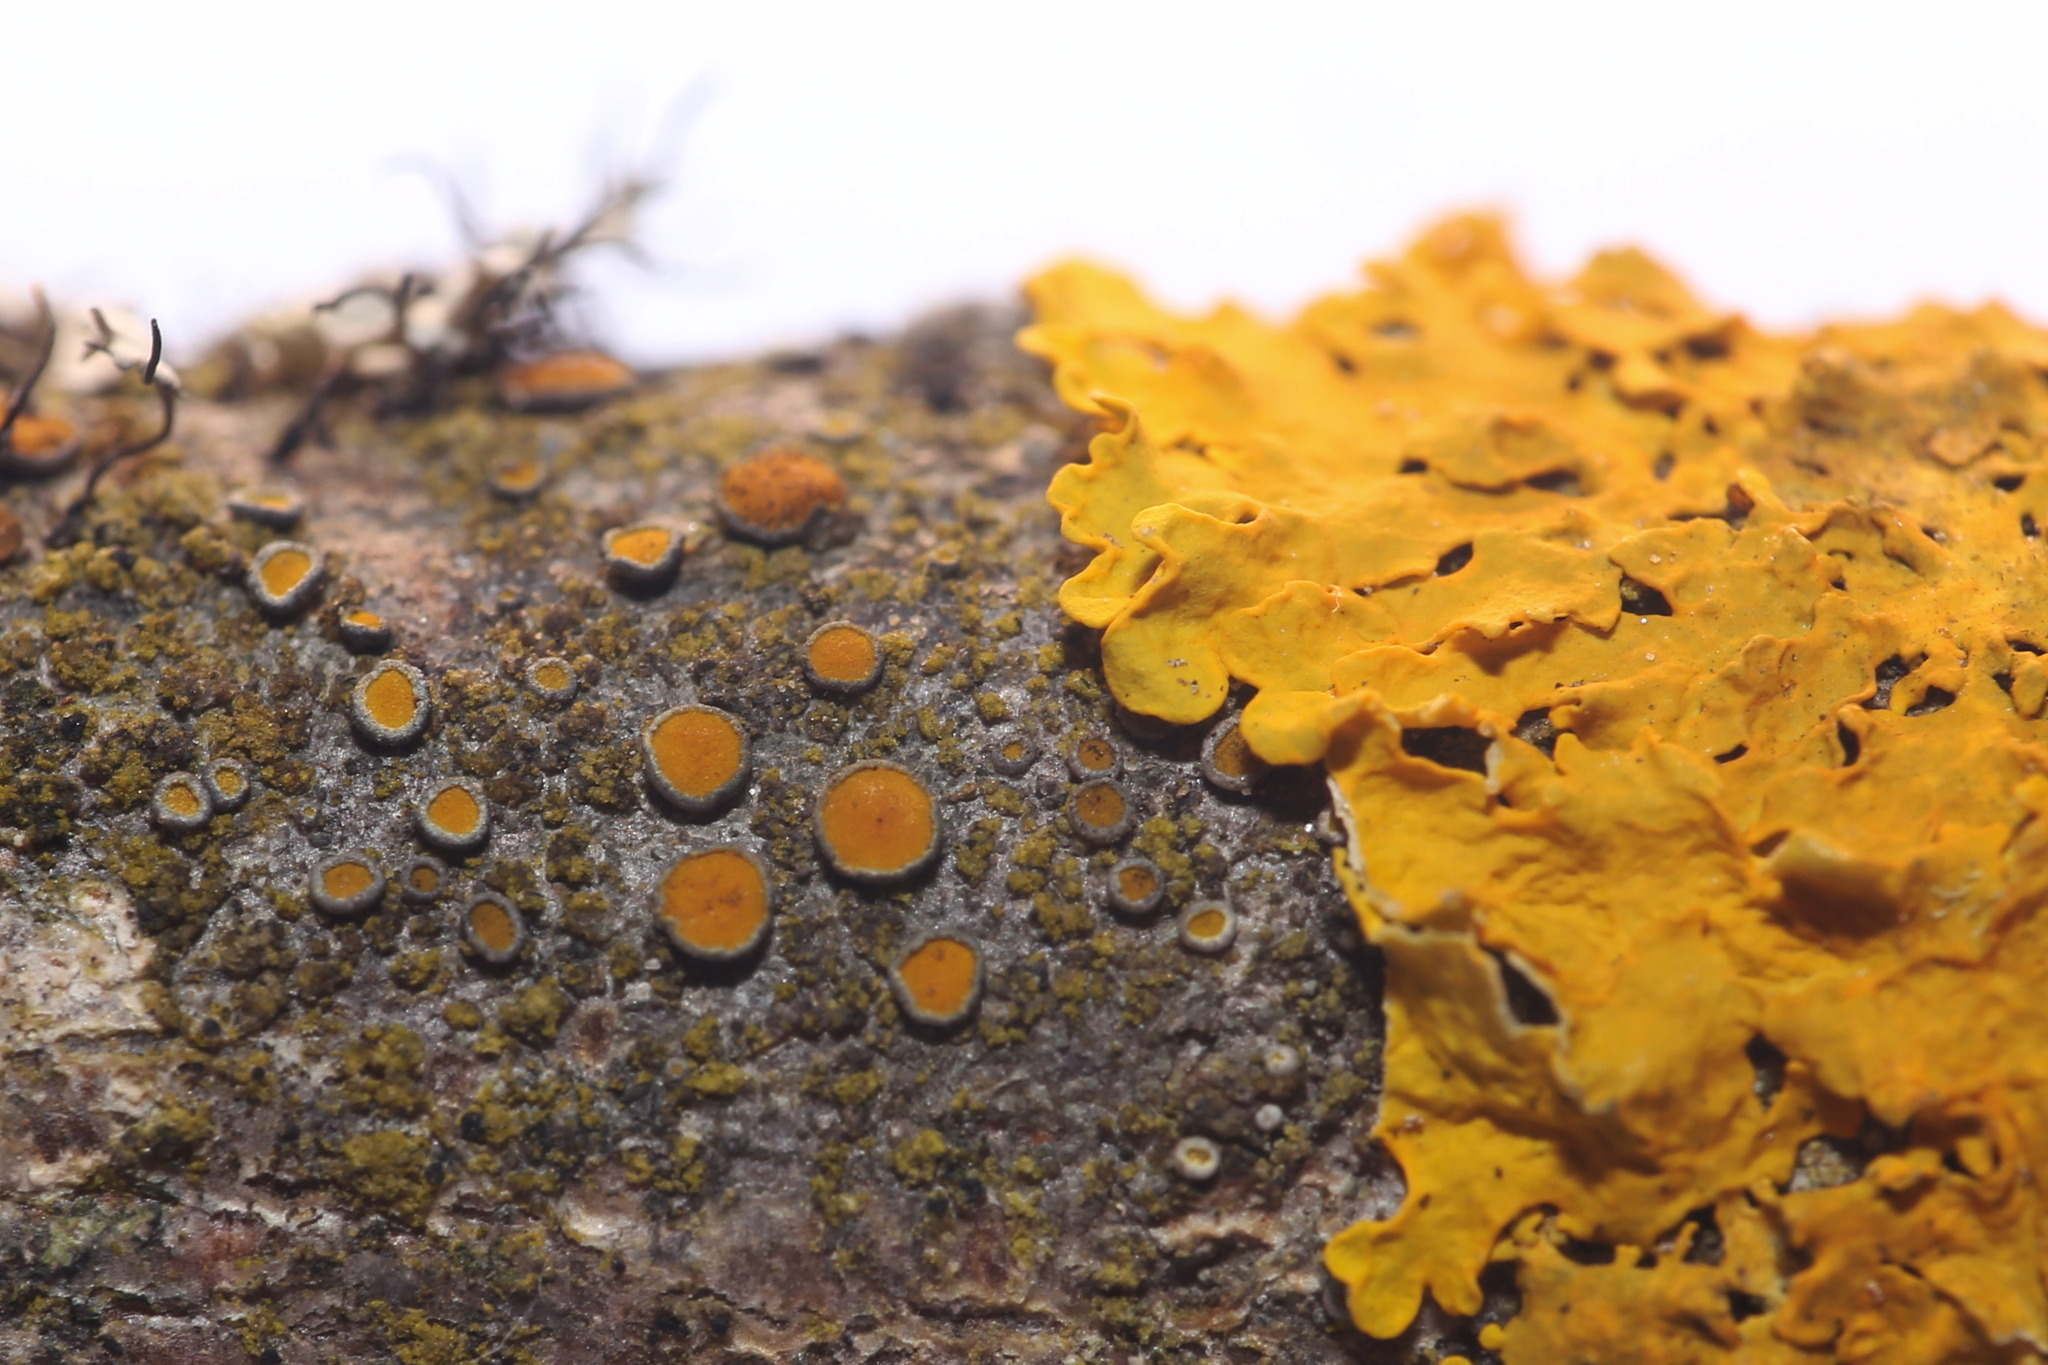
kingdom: Fungi
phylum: Ascomycota
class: Lecanoromycetes
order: Teloschistales
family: Teloschistaceae
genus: Xanthoria
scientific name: Xanthoria parietina
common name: Common orange lichen
